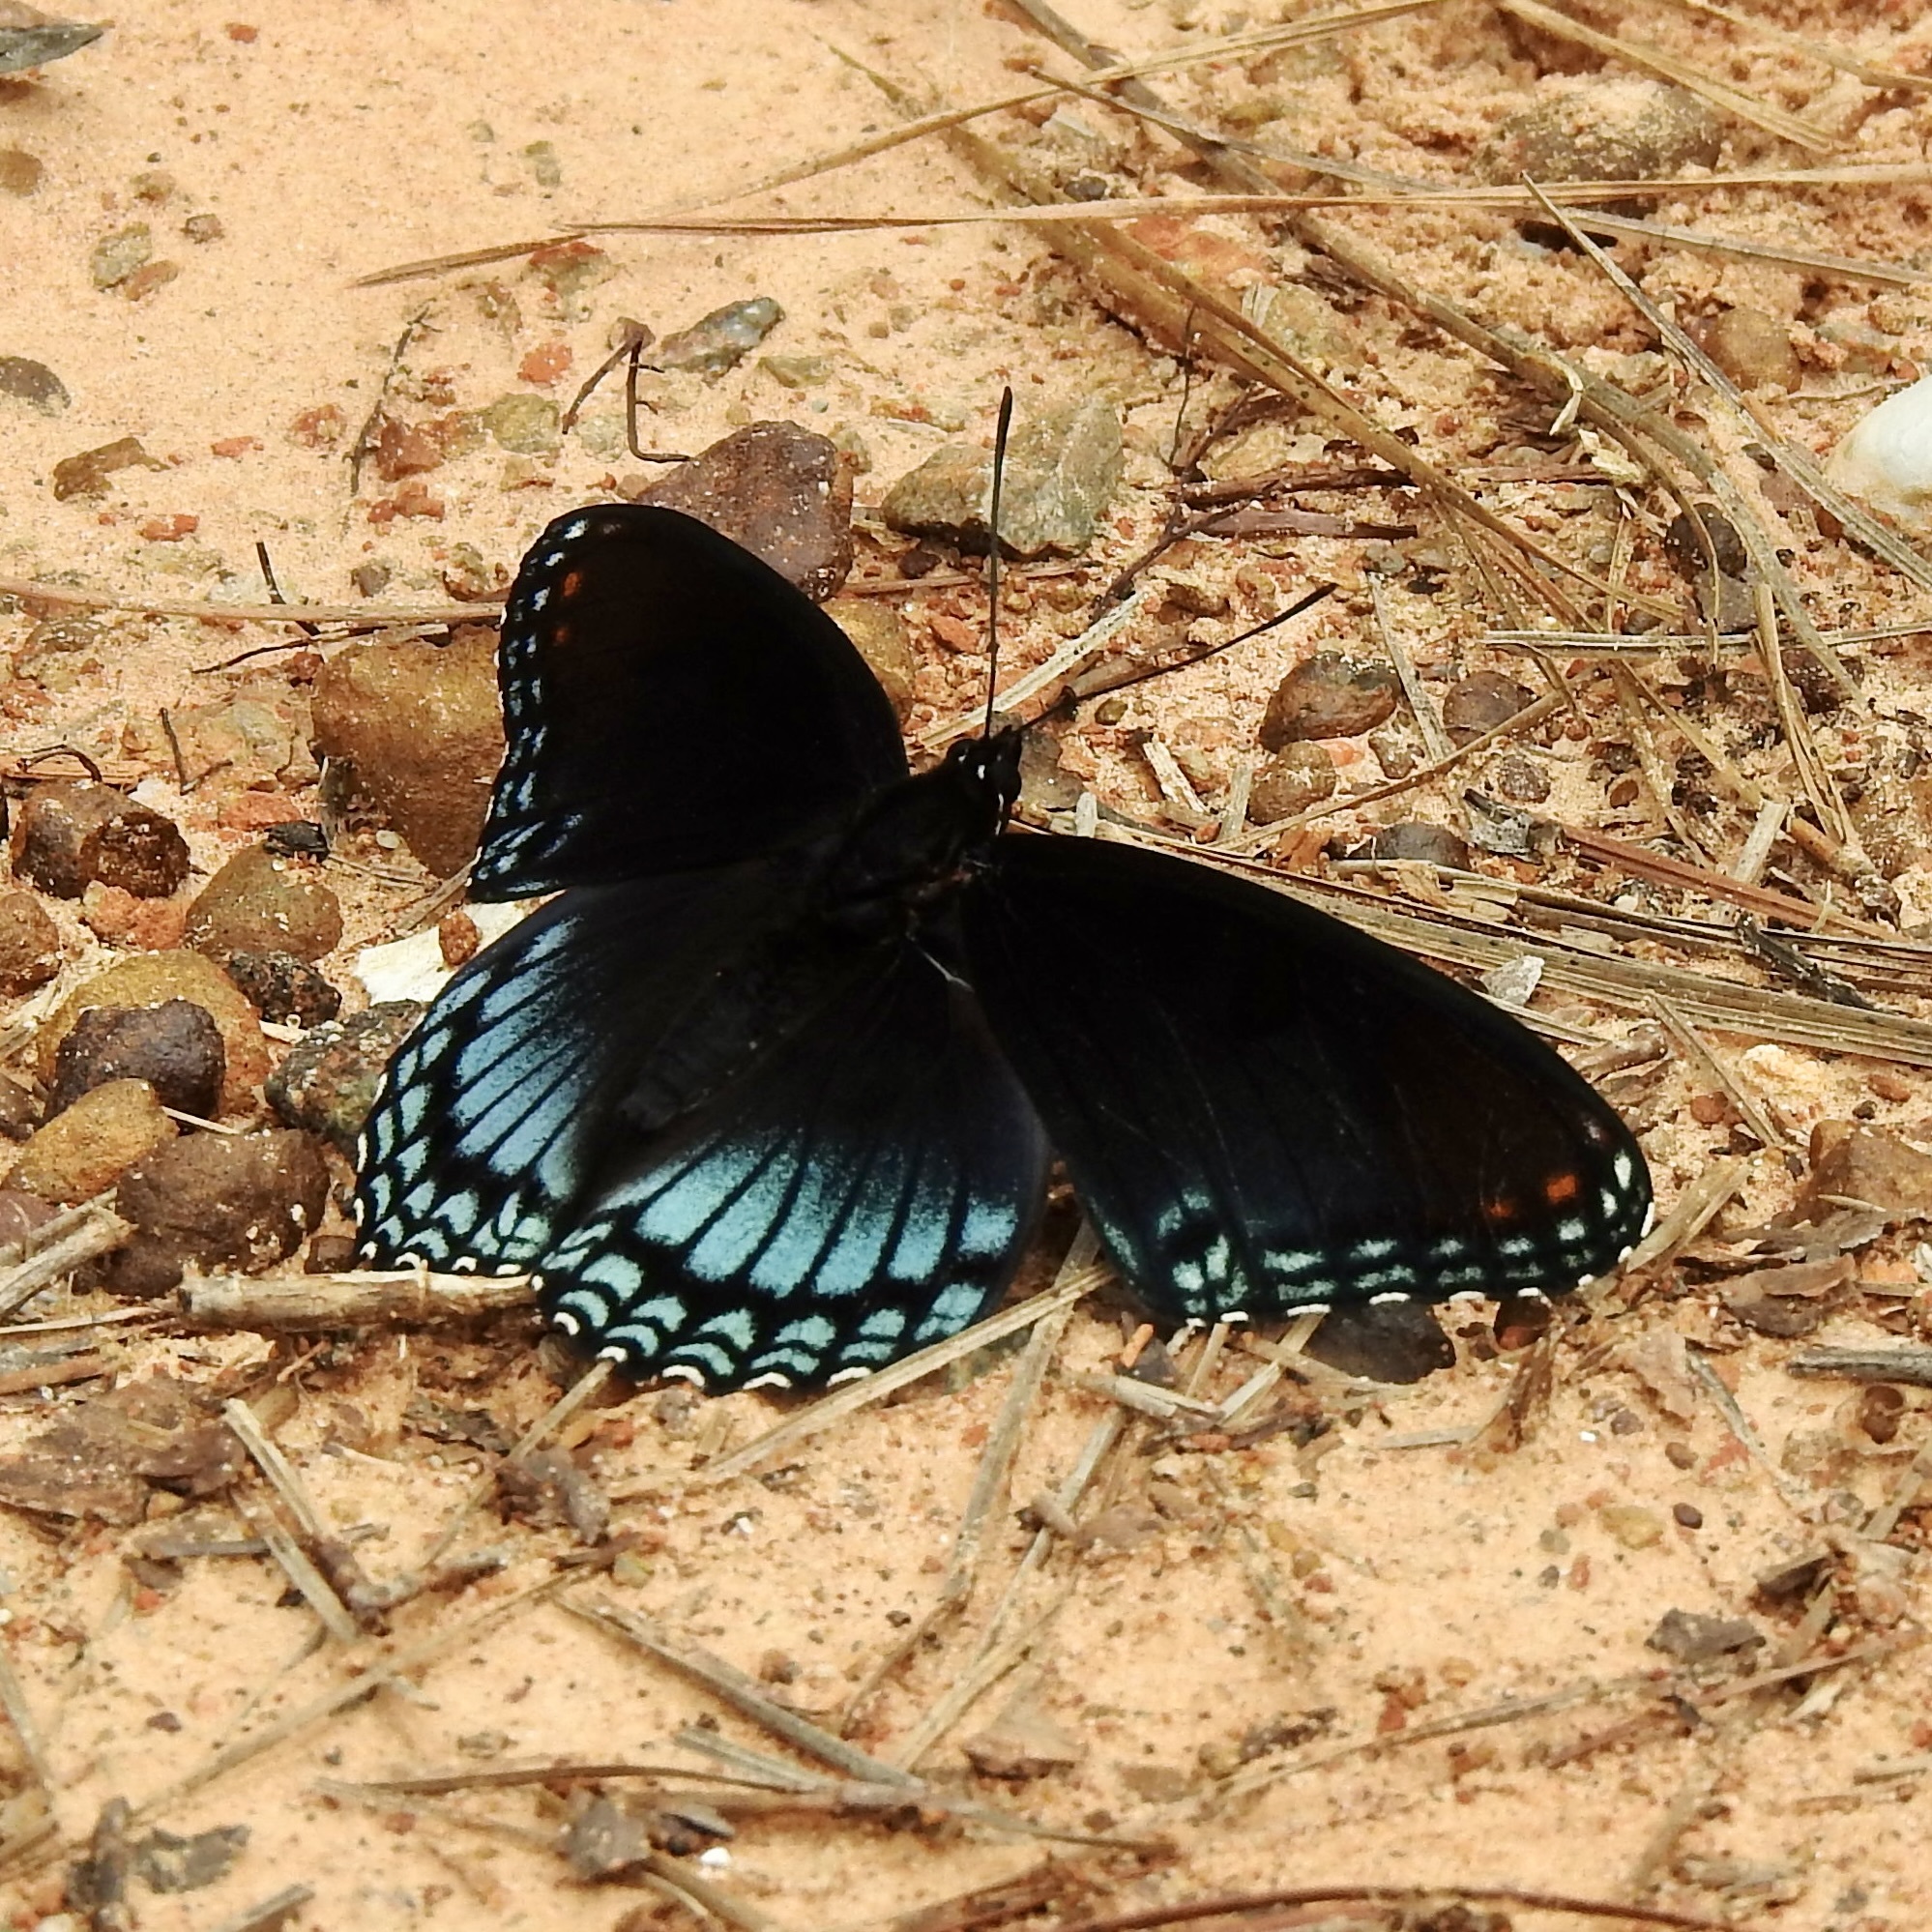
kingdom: Animalia
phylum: Arthropoda
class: Insecta
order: Lepidoptera
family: Nymphalidae
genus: Limenitis
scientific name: Limenitis arthemis
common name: Red-spotted admiral
